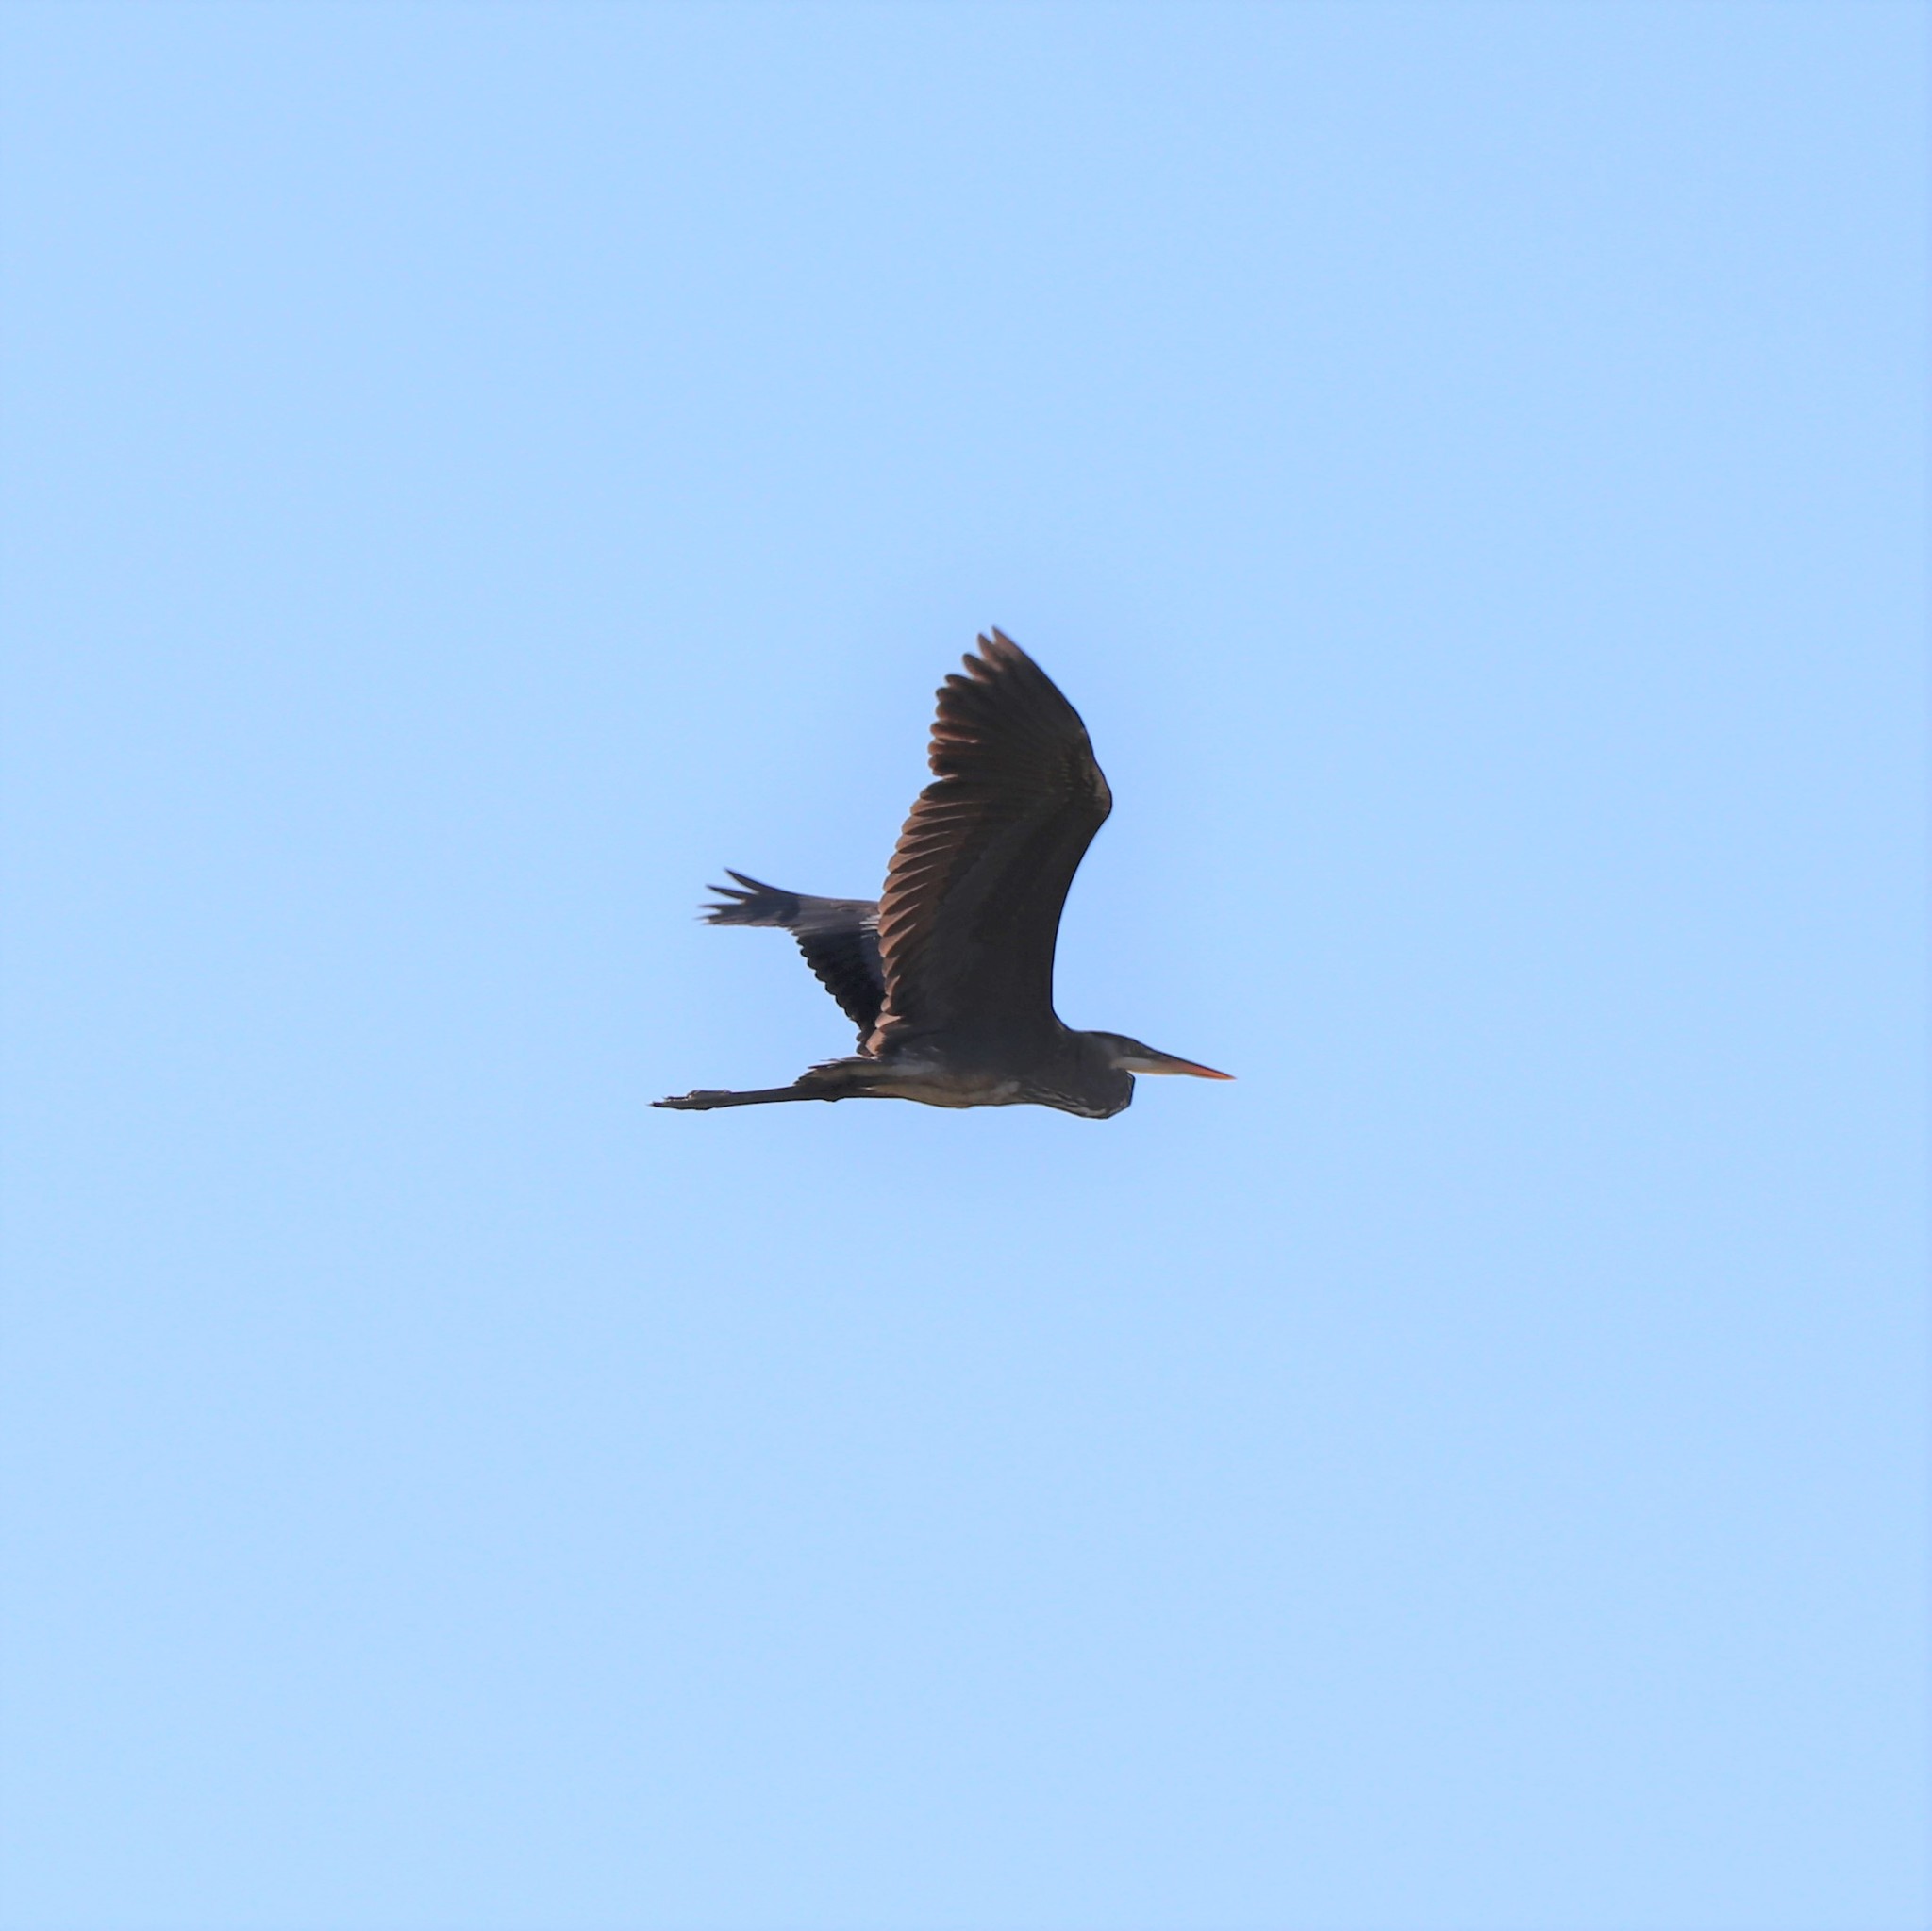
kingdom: Animalia
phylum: Chordata
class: Aves
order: Pelecaniformes
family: Ardeidae
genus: Ardea
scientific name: Ardea herodias
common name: Great blue heron
